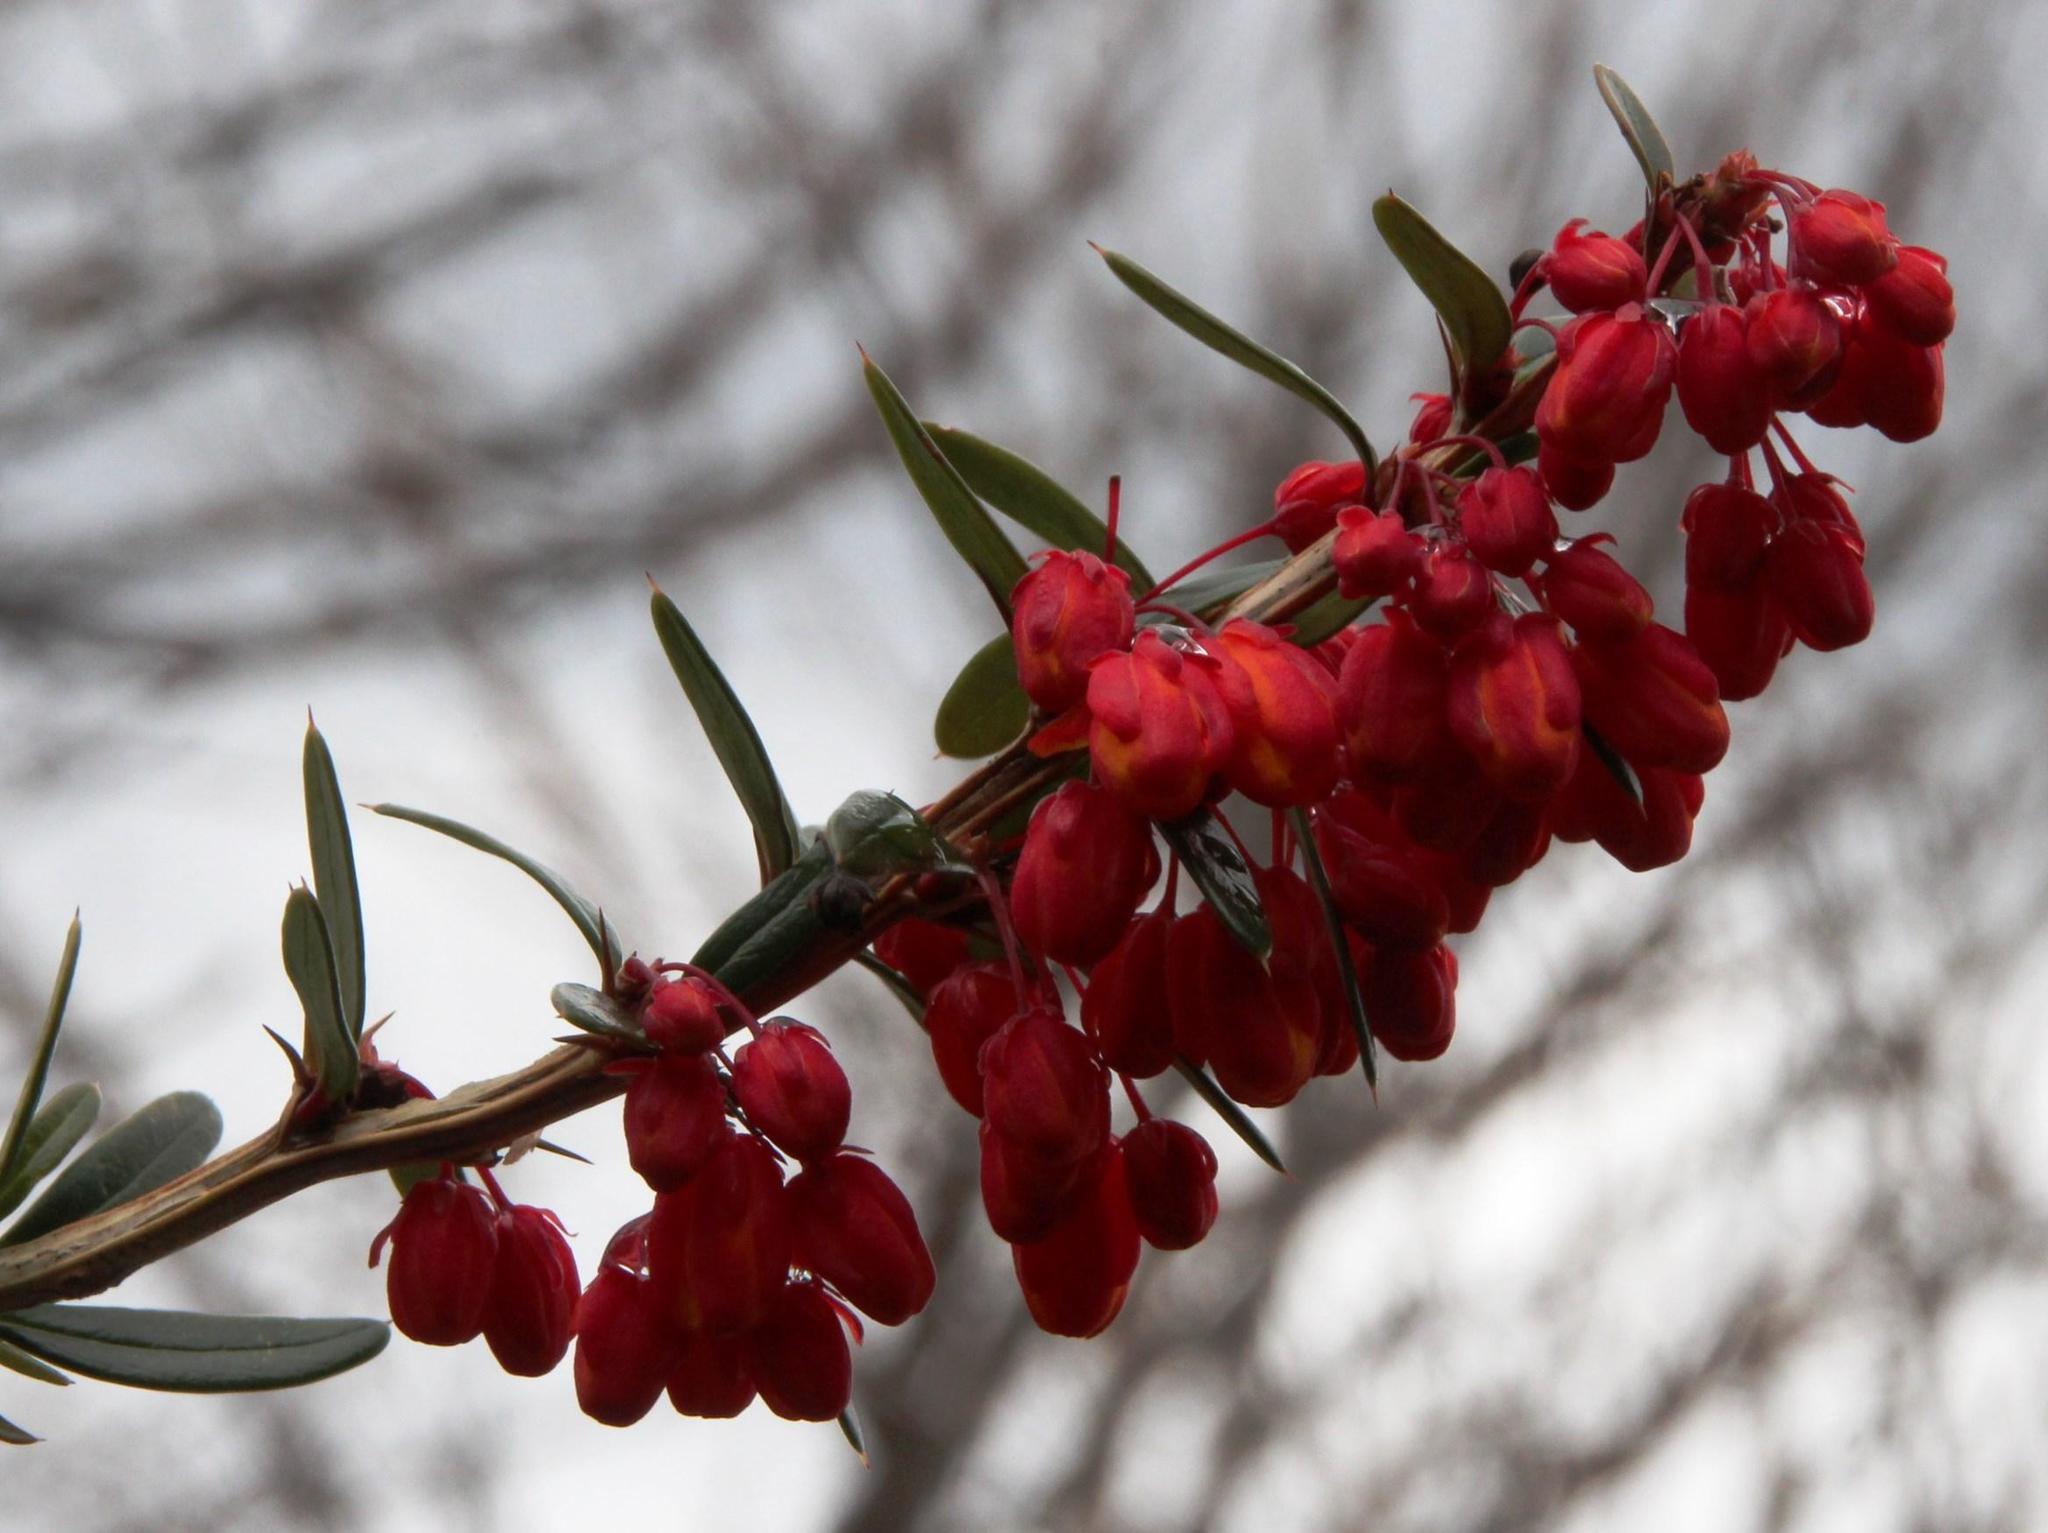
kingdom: Plantae
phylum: Tracheophyta
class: Magnoliopsida
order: Ranunculales
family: Berberidaceae
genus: Berberis
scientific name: Berberis trigona
